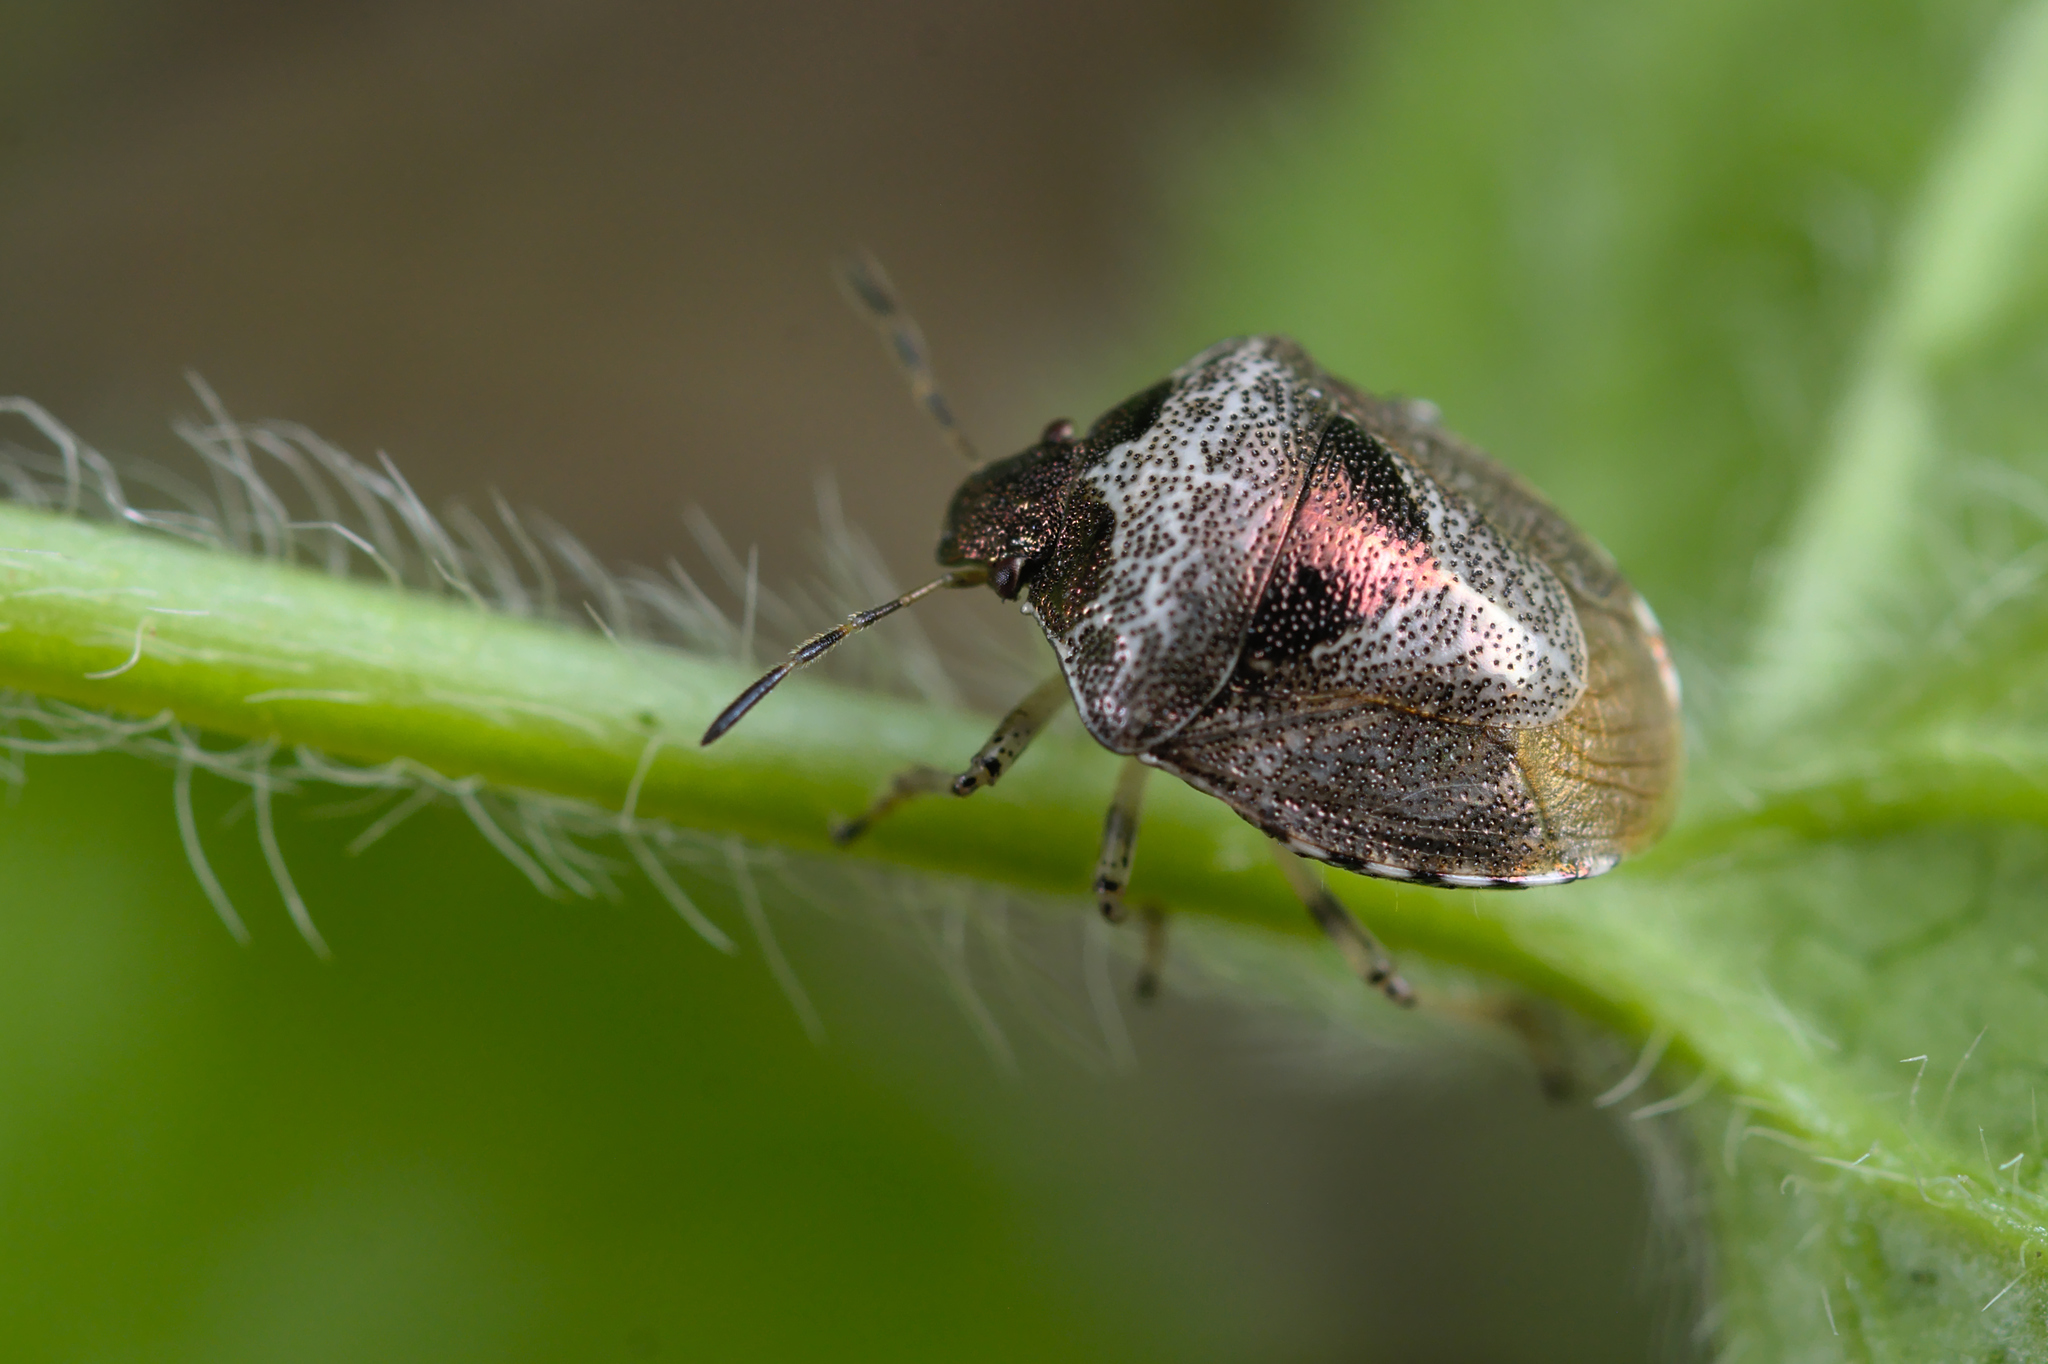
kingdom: Animalia
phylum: Arthropoda
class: Insecta
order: Hemiptera
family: Pentatomidae
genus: Eysarcoris
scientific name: Eysarcoris venustissimus
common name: Woundwort shieldbug
